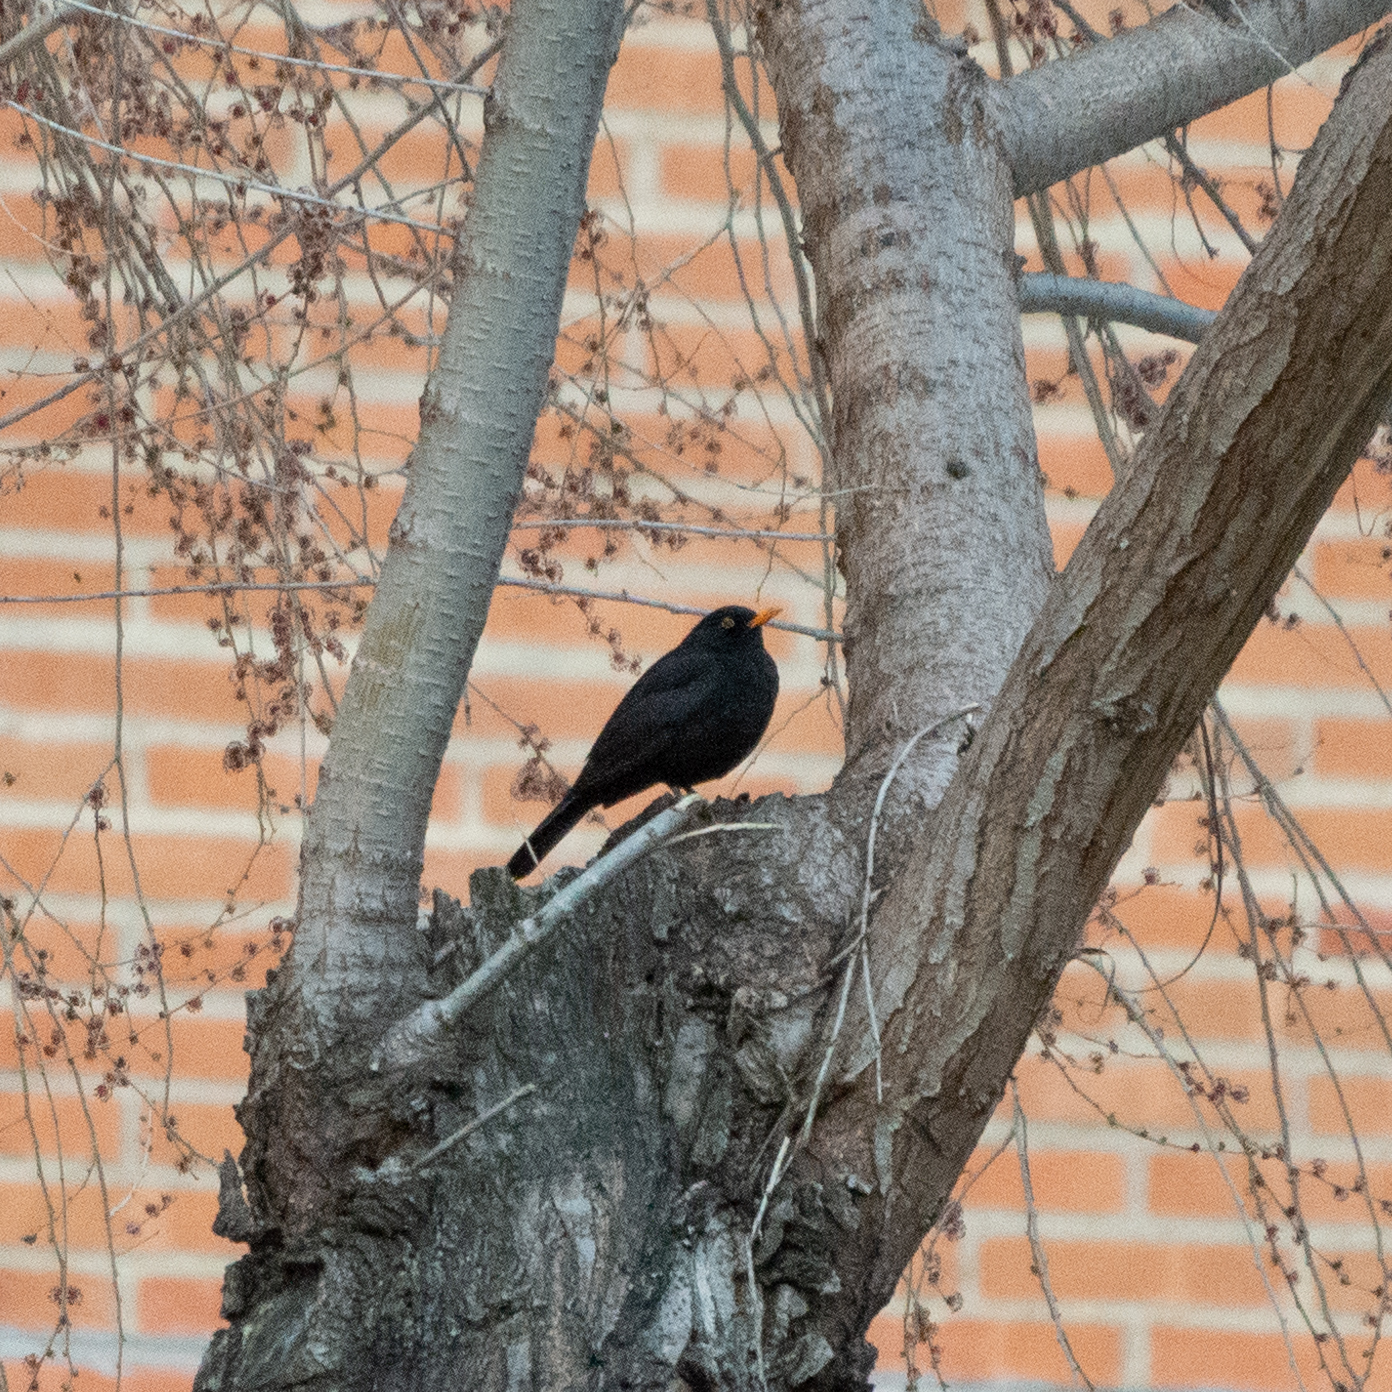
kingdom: Animalia
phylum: Chordata
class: Aves
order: Passeriformes
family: Turdidae
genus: Turdus
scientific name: Turdus merula
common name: Common blackbird
